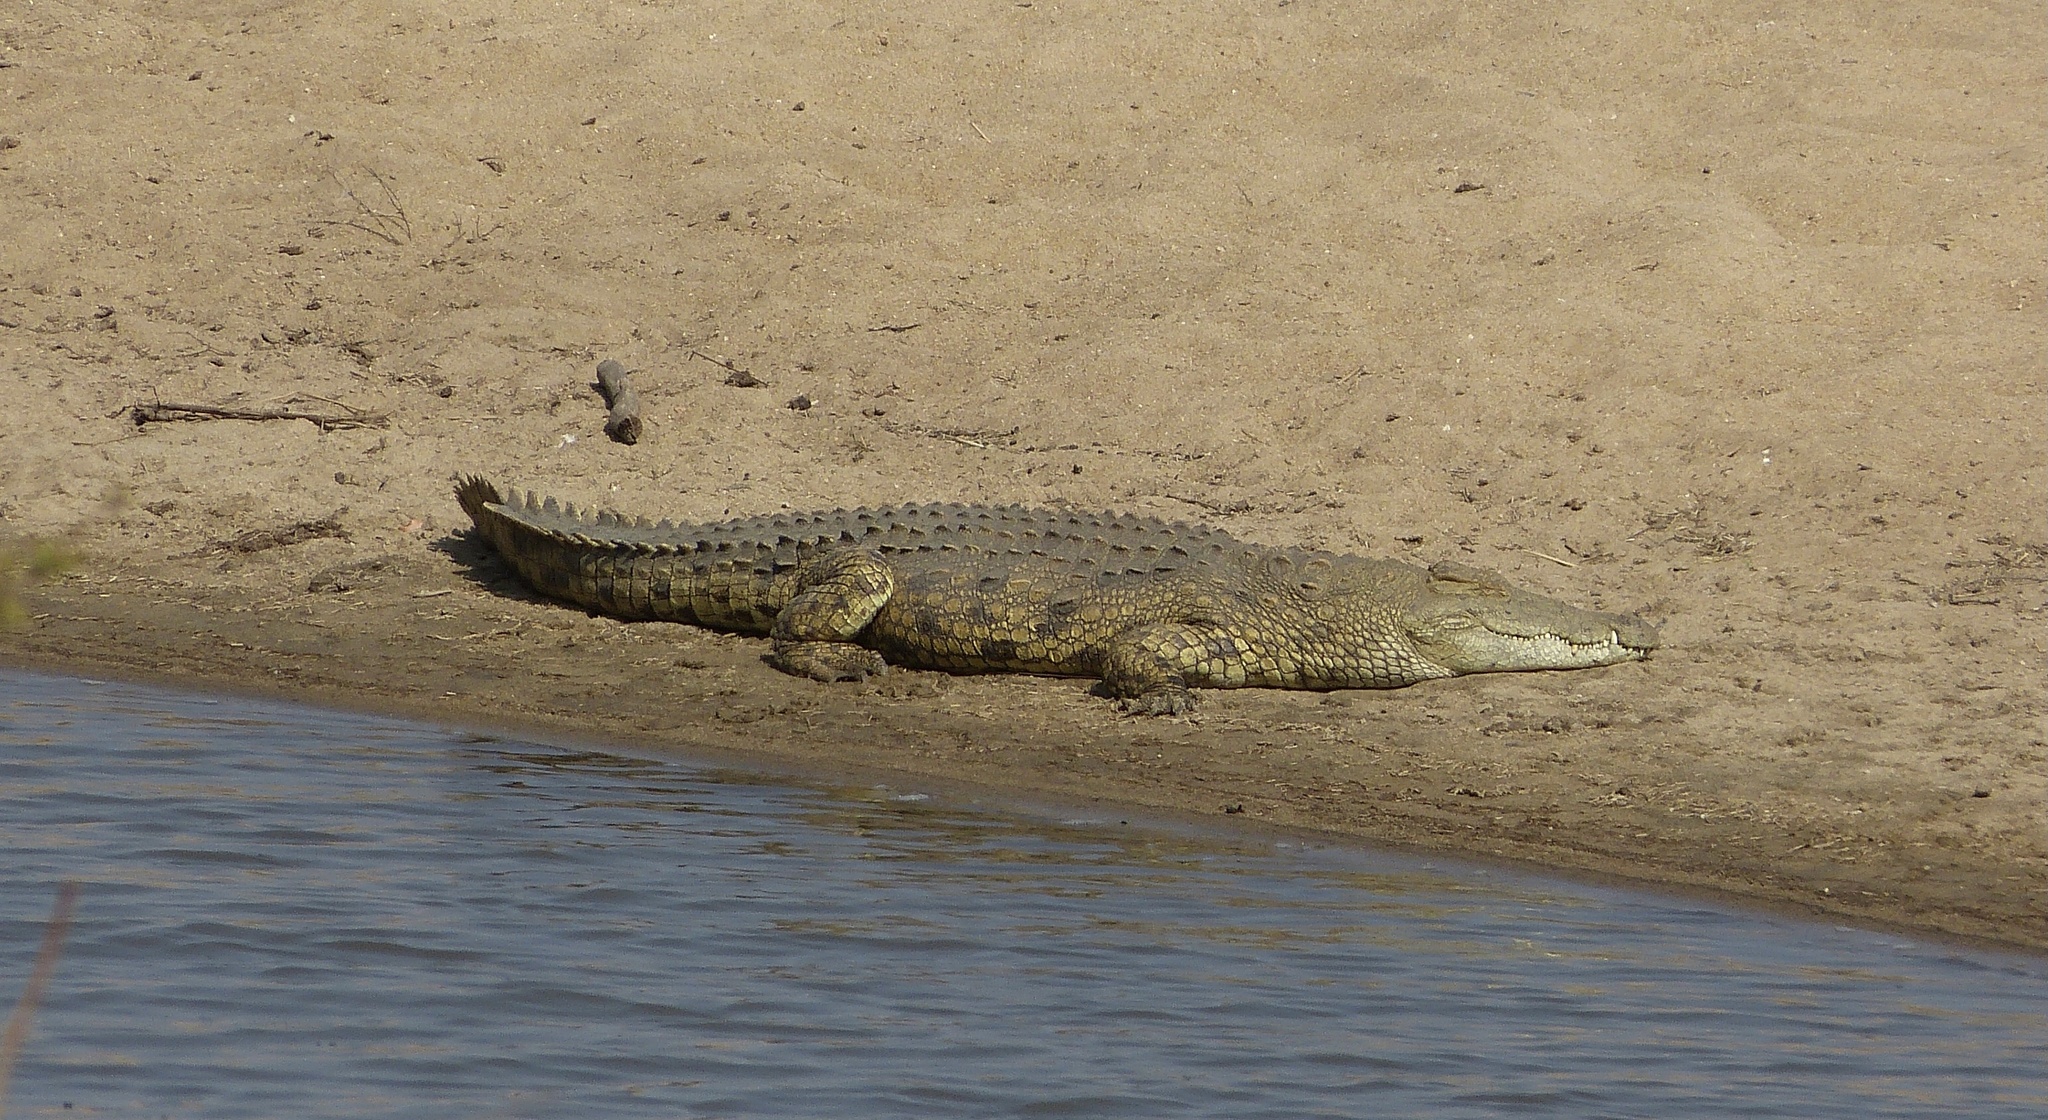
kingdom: Animalia
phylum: Chordata
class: Crocodylia
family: Crocodylidae
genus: Crocodylus
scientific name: Crocodylus niloticus
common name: Nile crocodile
